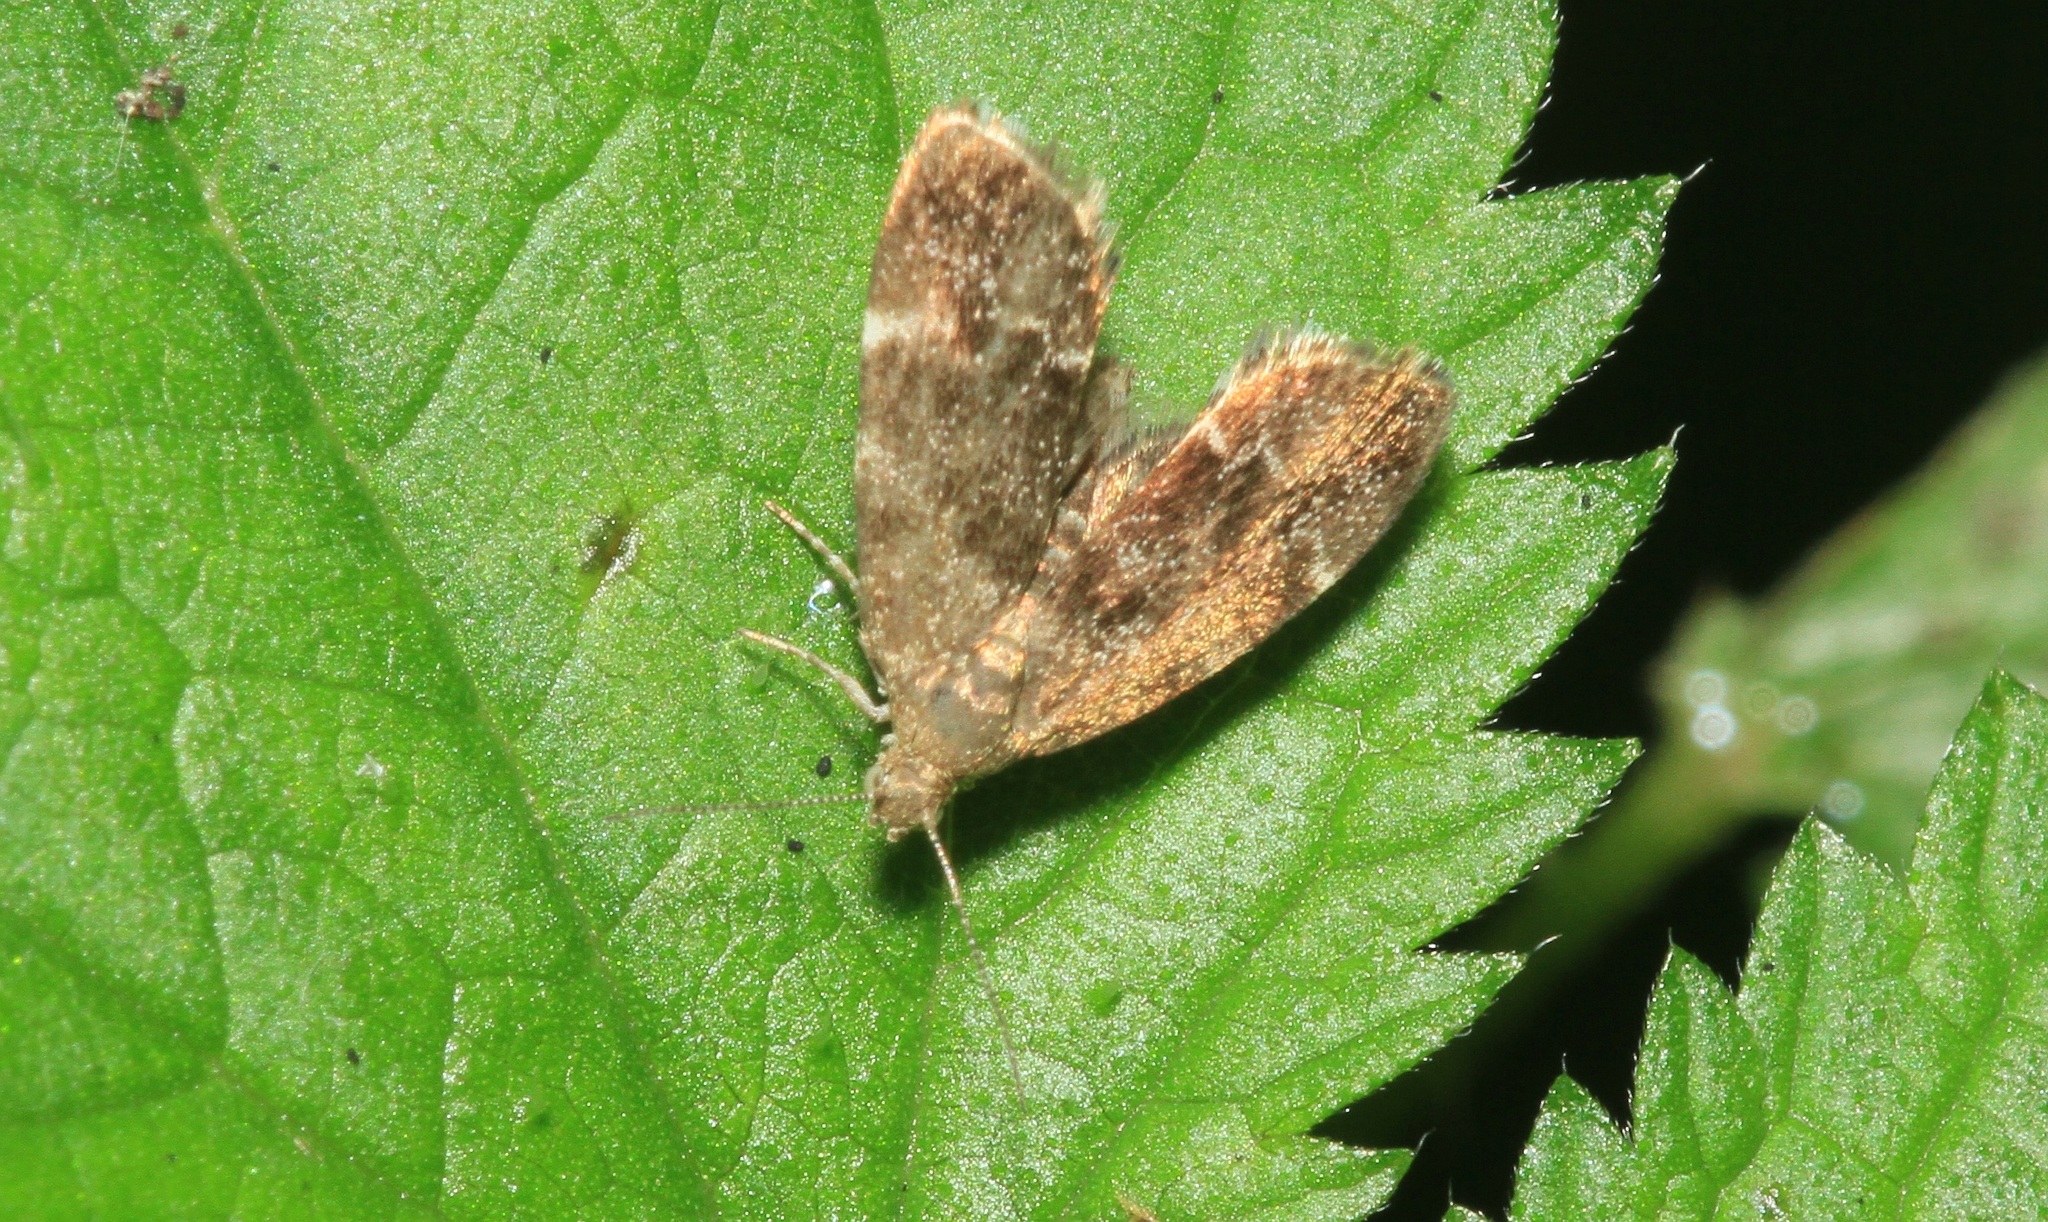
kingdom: Animalia
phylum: Arthropoda
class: Insecta
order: Lepidoptera
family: Choreutidae
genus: Anthophila
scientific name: Anthophila fabriciana
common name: Nettle-tap
